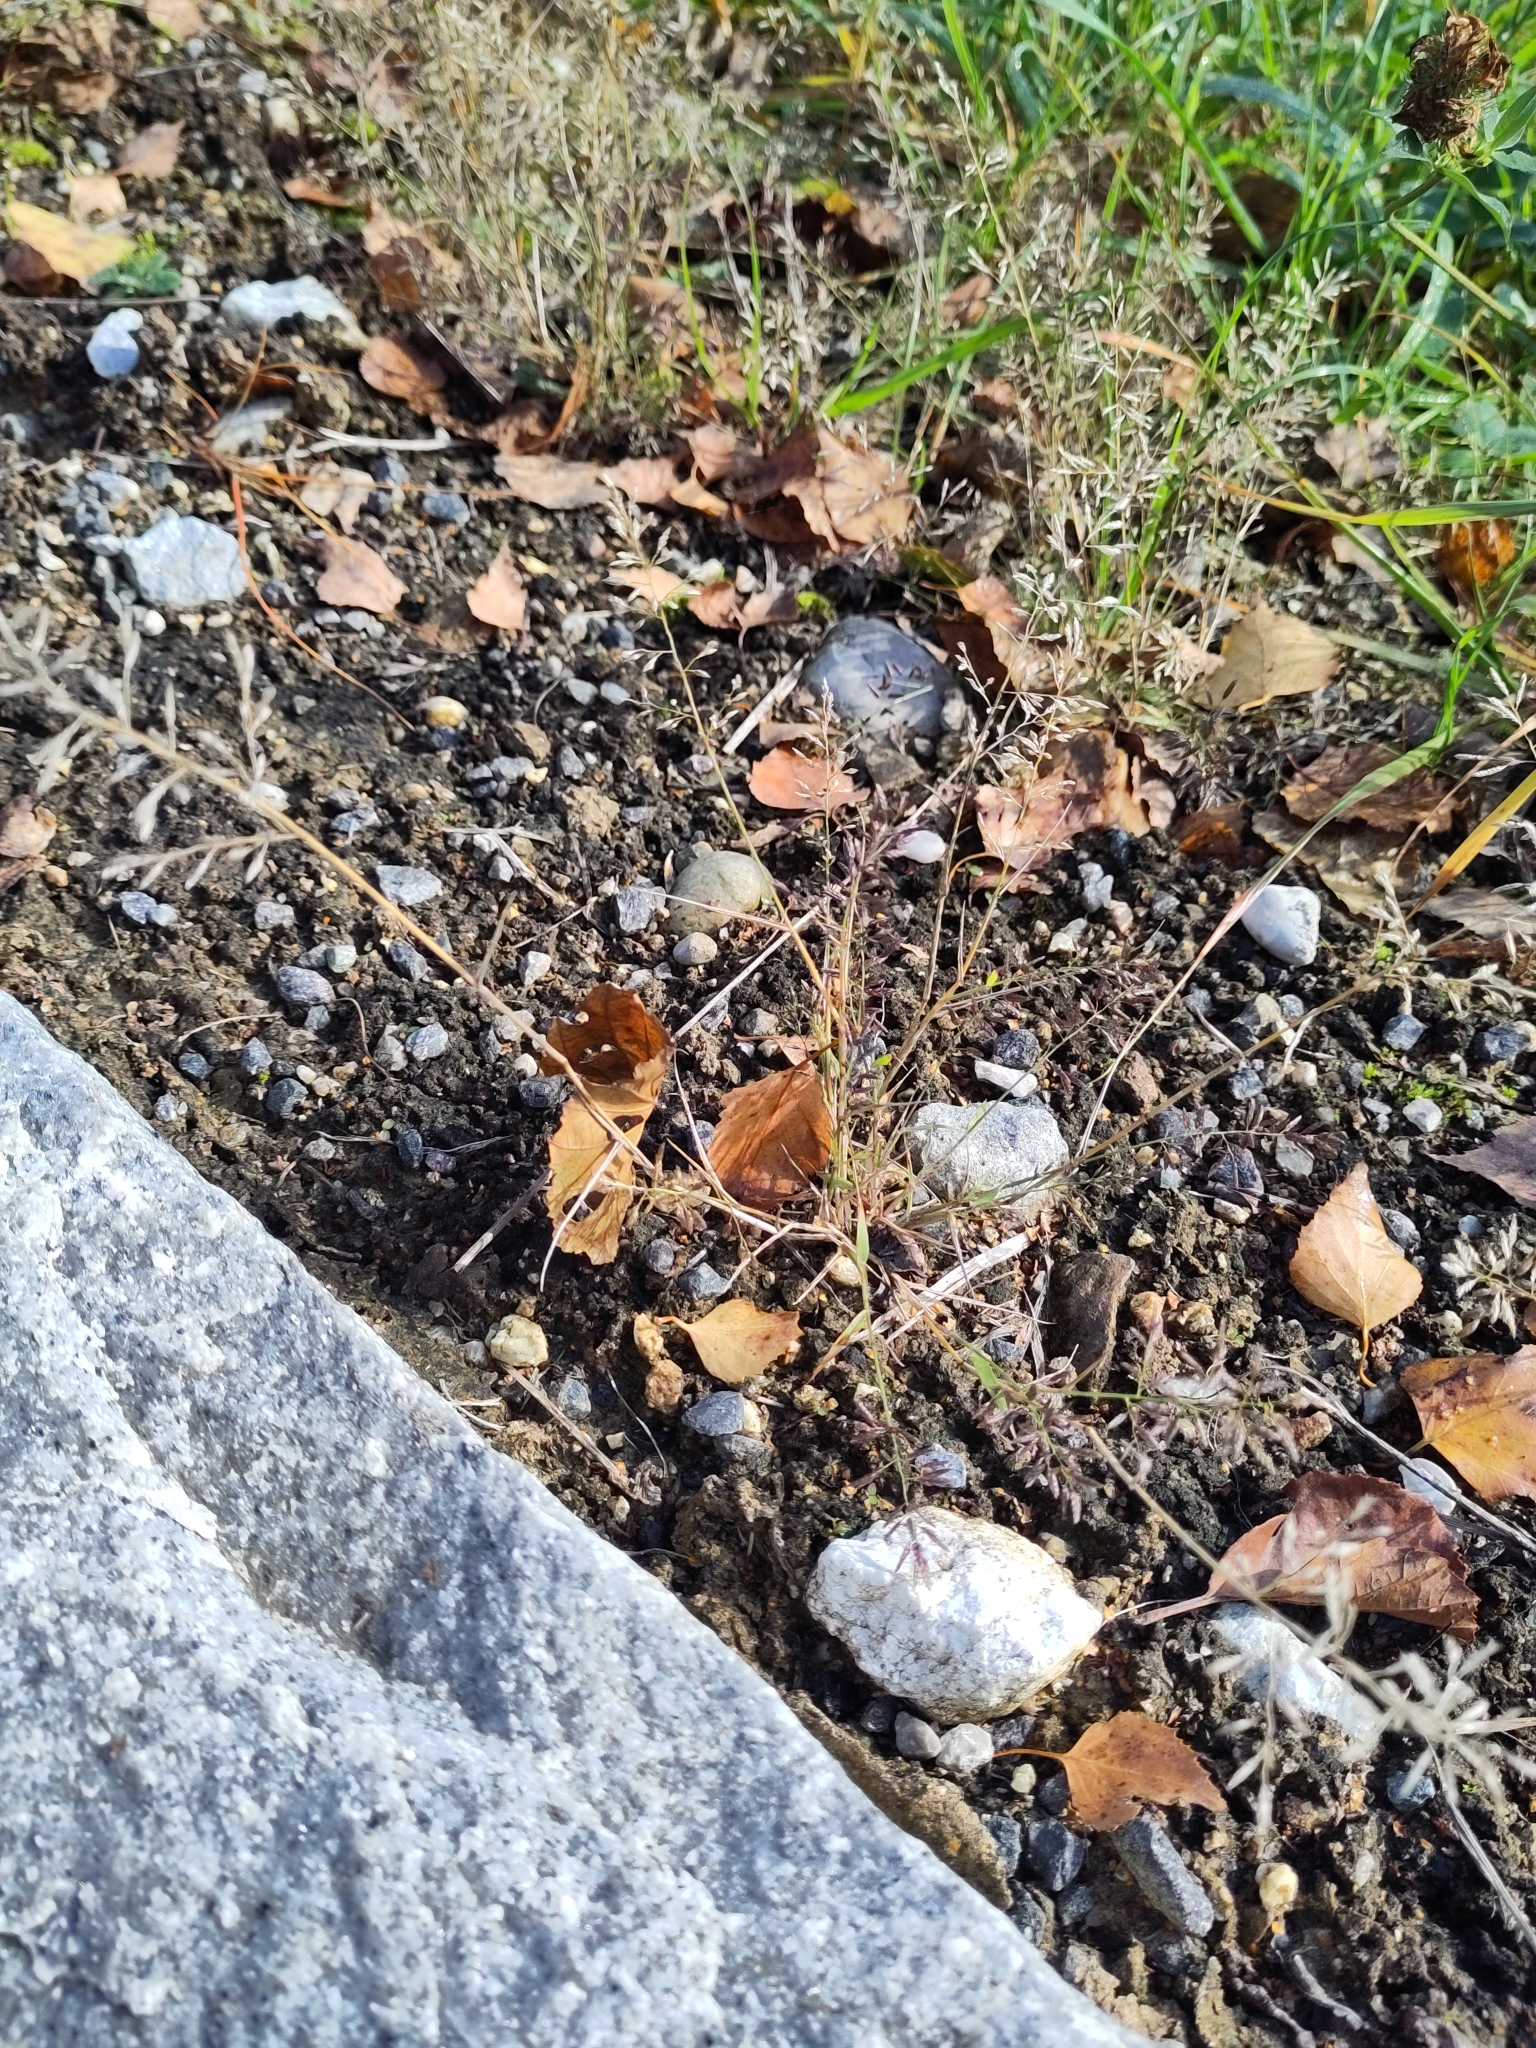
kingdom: Plantae
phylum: Tracheophyta
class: Liliopsida
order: Poales
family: Poaceae
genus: Eragrostis
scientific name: Eragrostis minor
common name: Small love-grass
